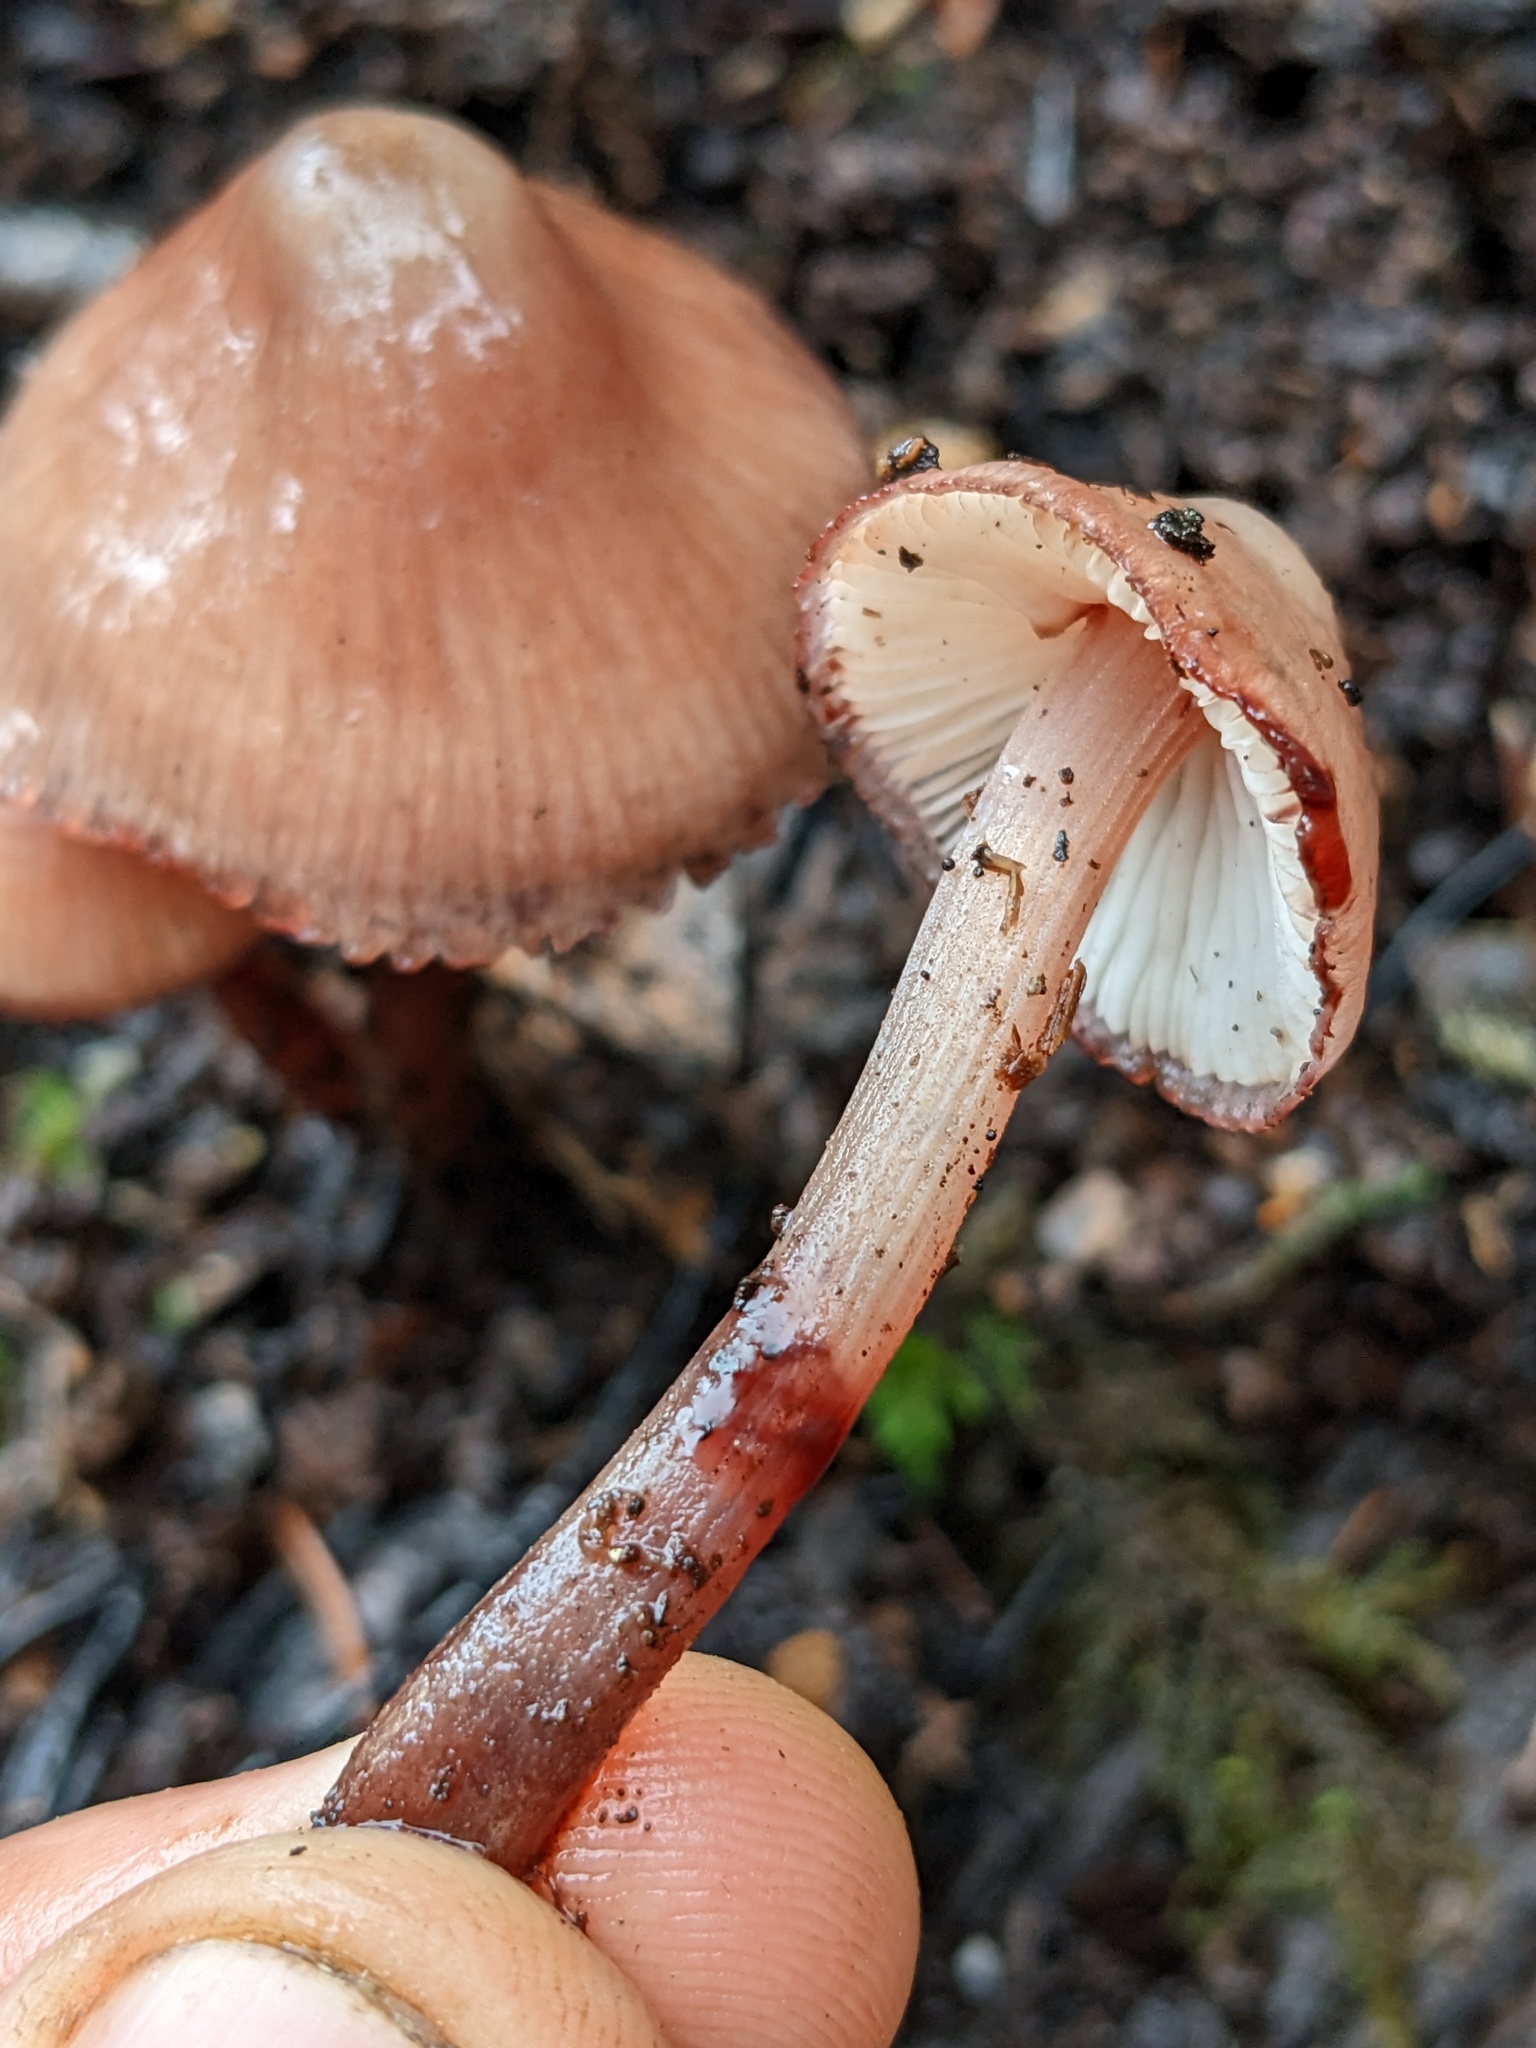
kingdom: Fungi
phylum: Basidiomycota
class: Agaricomycetes
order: Agaricales
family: Mycenaceae
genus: Mycena
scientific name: Mycena haematopus
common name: Burgundydrop bonnet
